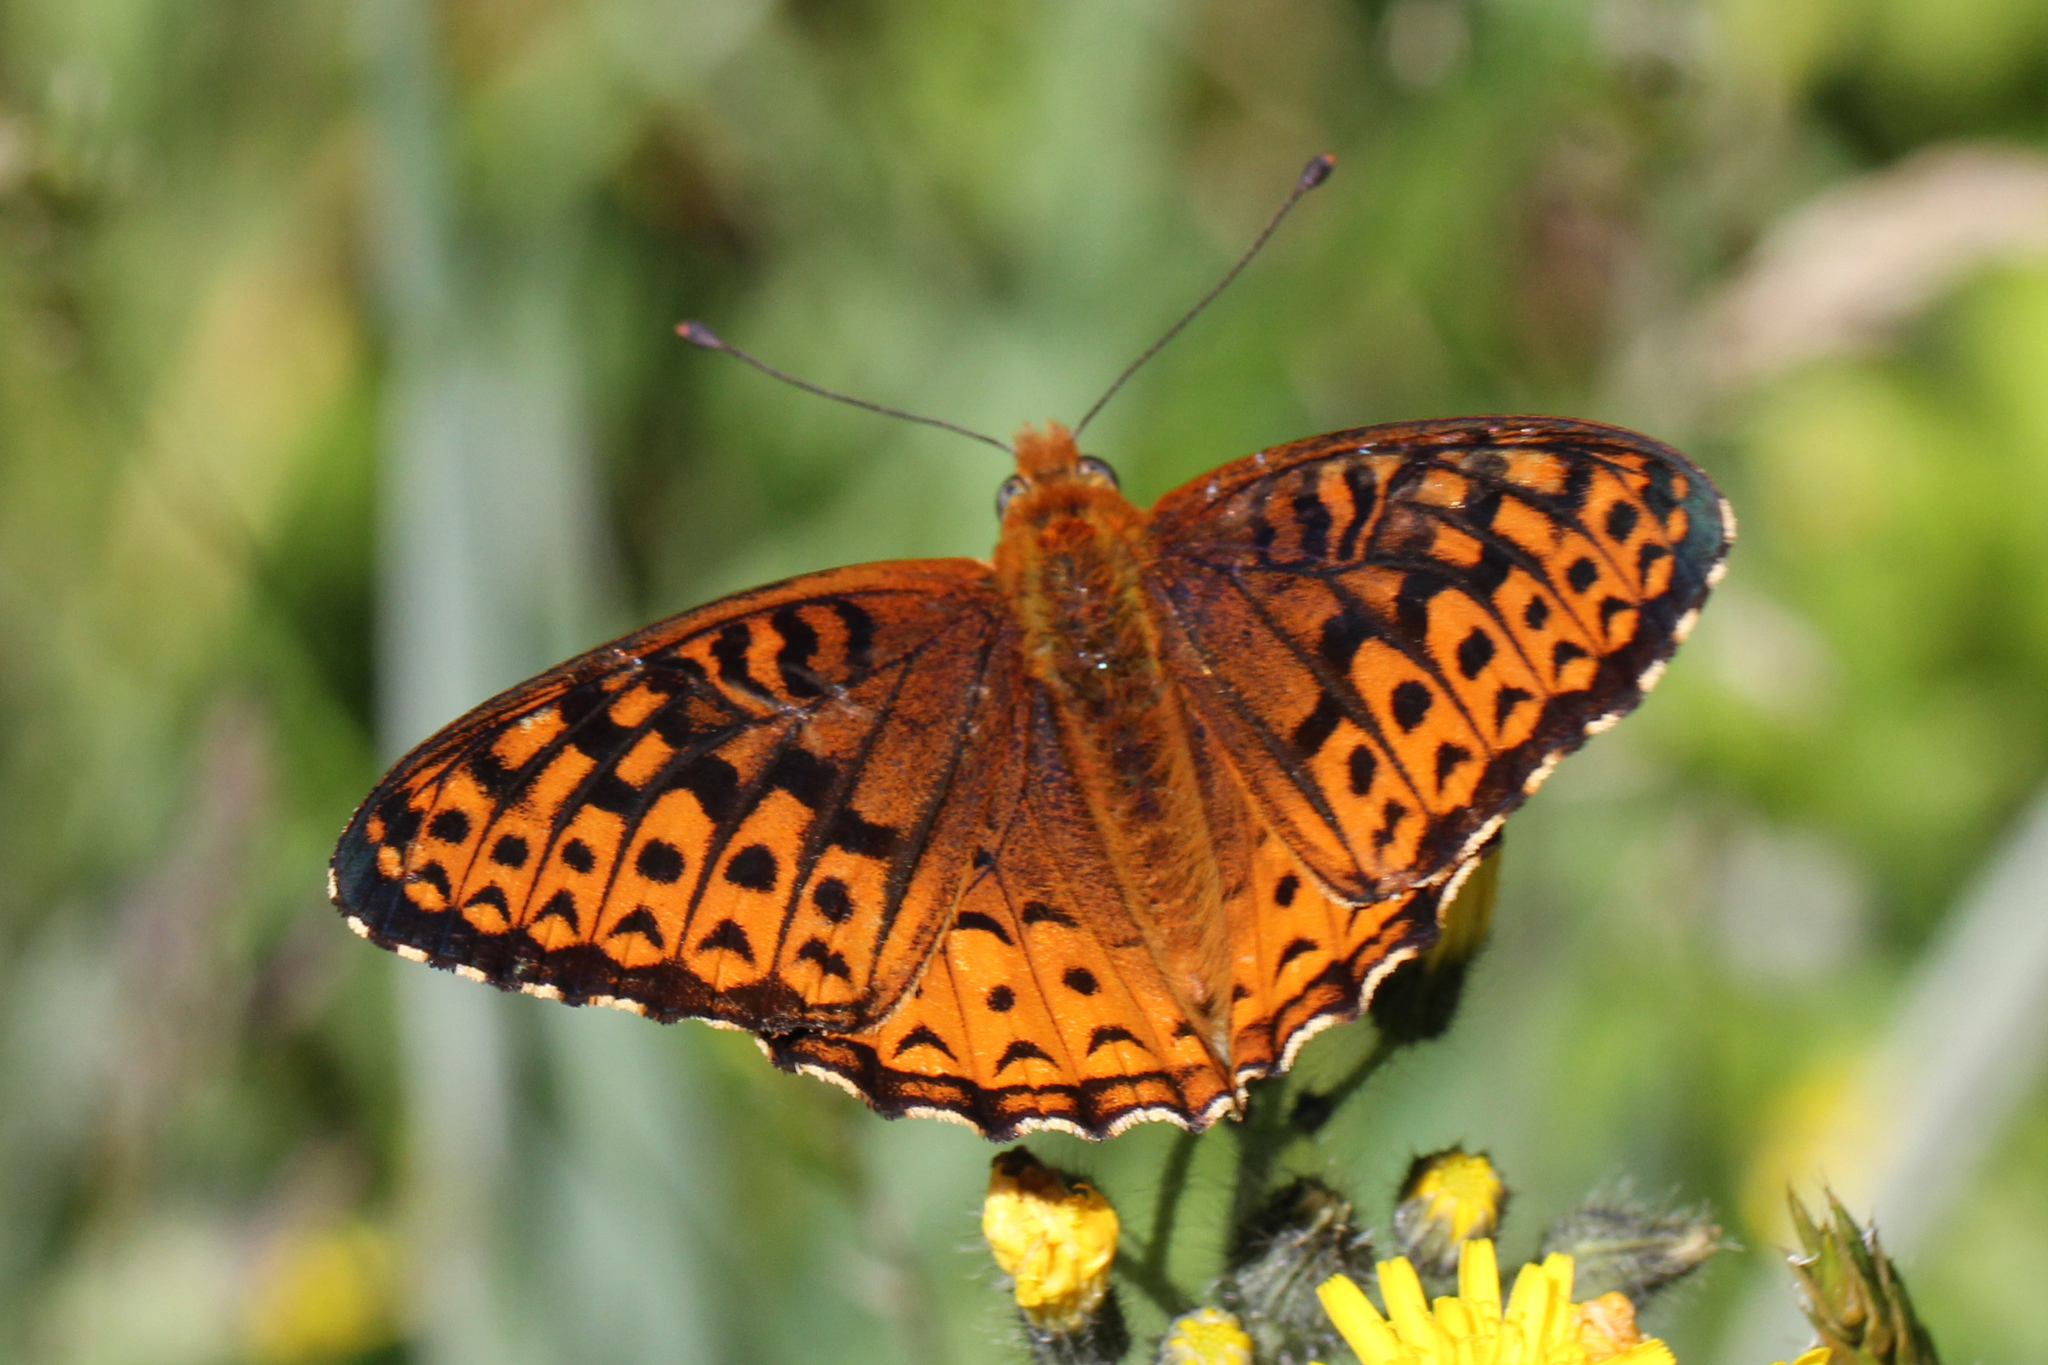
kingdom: Animalia
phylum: Arthropoda
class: Insecta
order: Lepidoptera
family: Nymphalidae
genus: Speyeria
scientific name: Speyeria atlantis
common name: Atlantis fritillary
